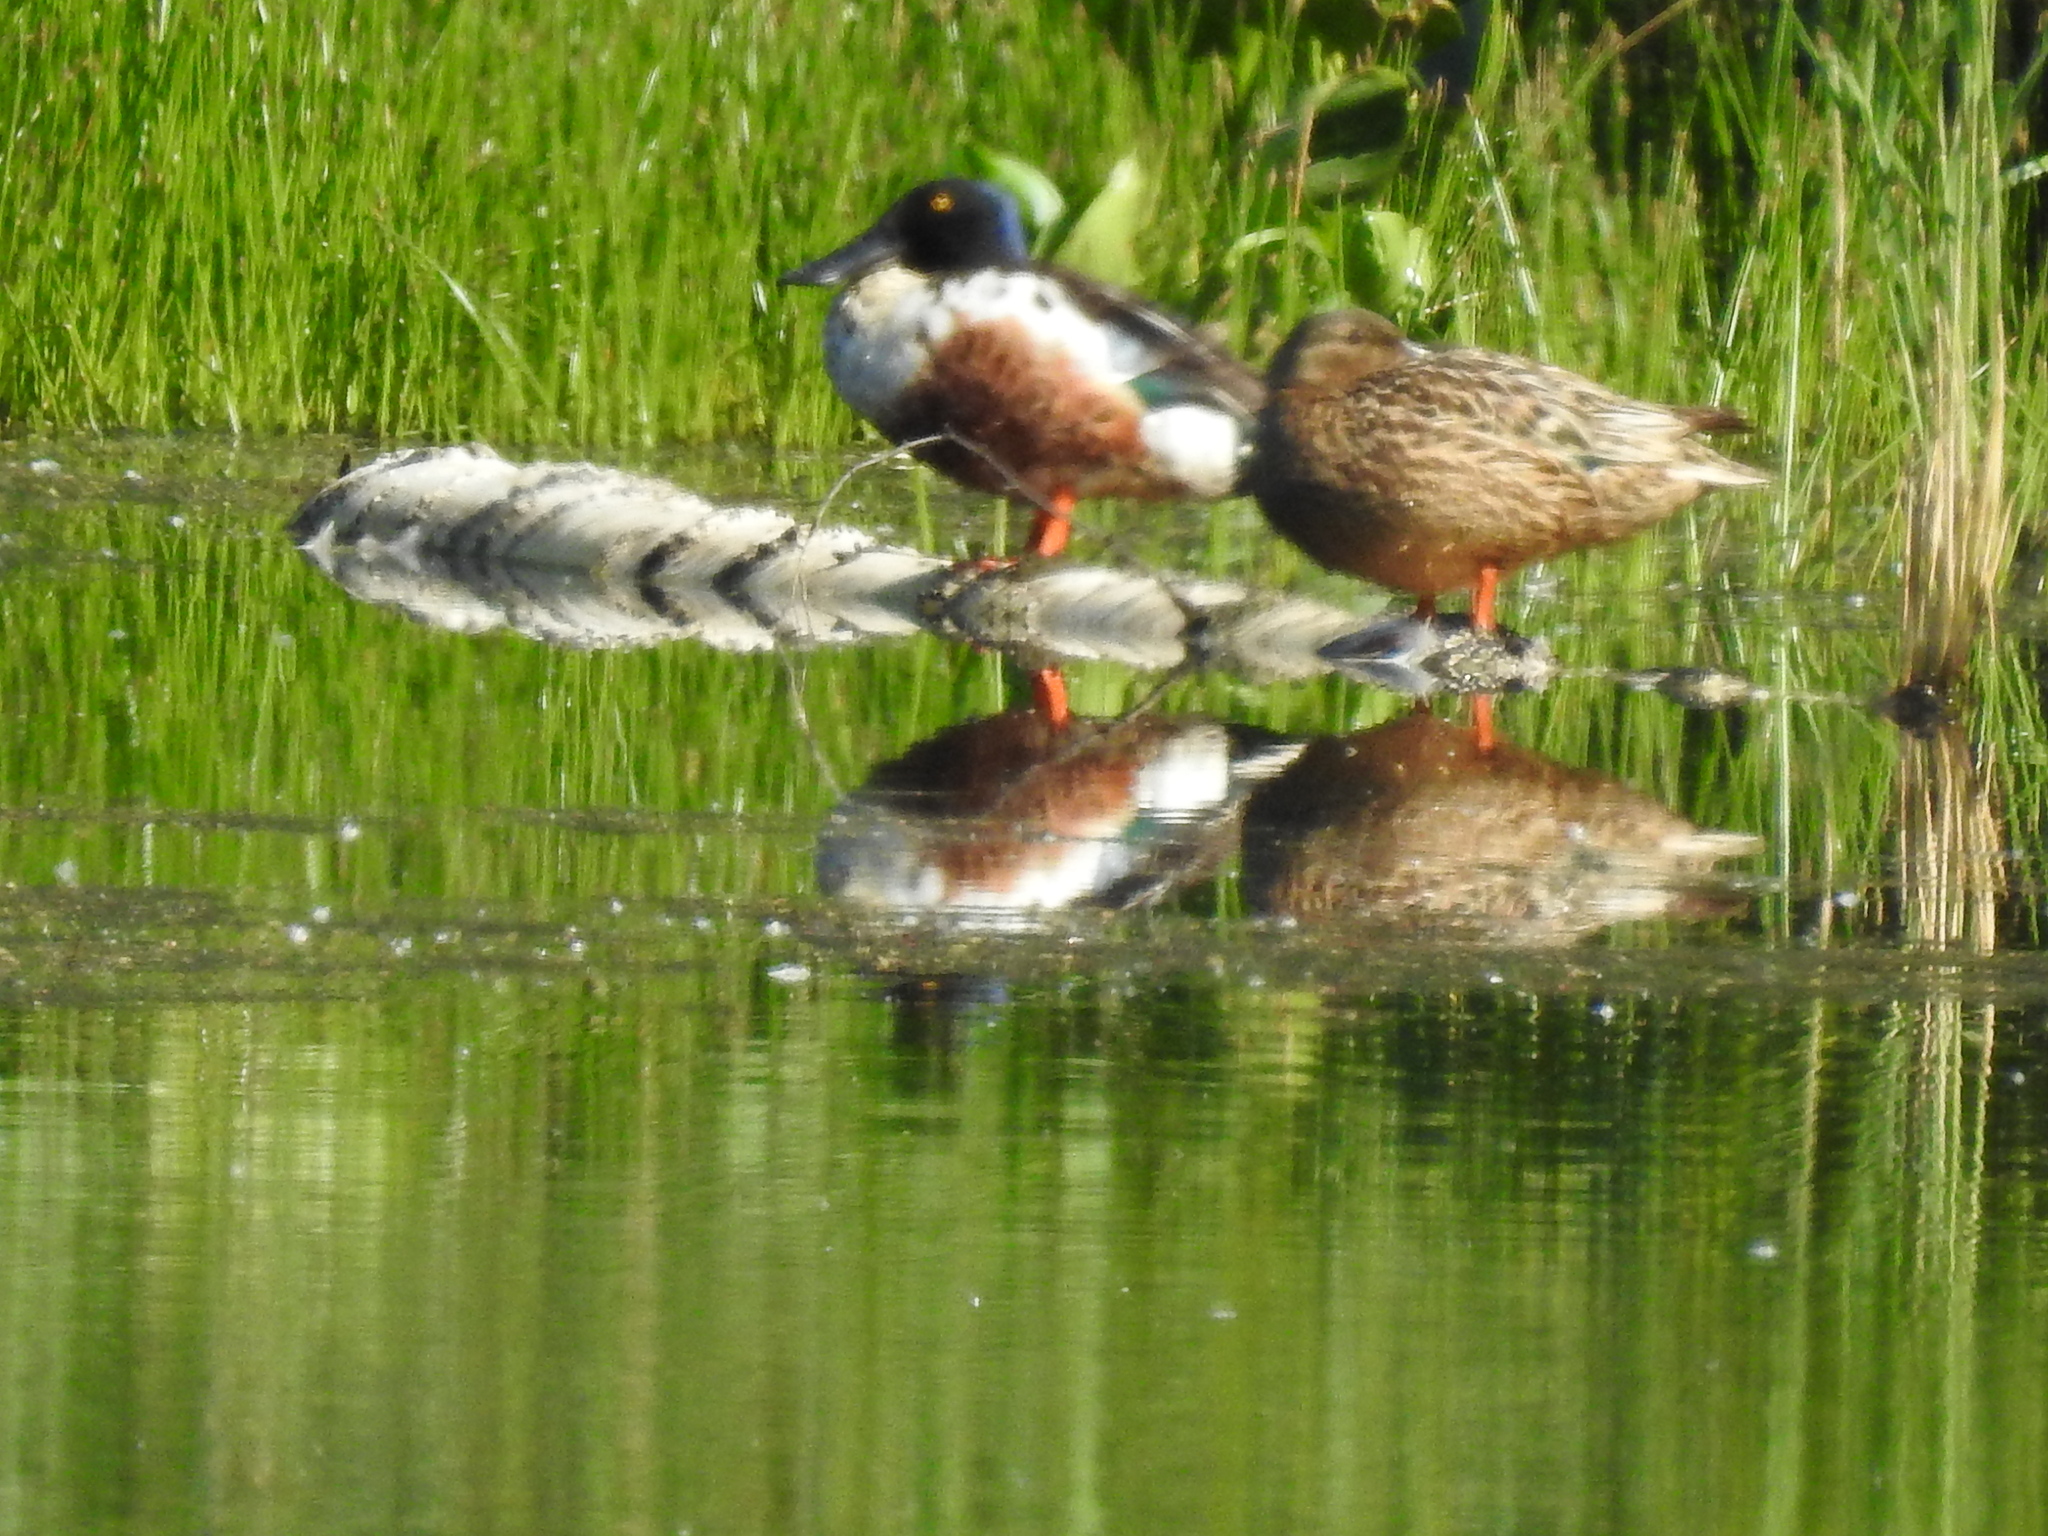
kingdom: Animalia
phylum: Chordata
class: Aves
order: Anseriformes
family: Anatidae
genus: Spatula
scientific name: Spatula clypeata
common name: Northern shoveler
